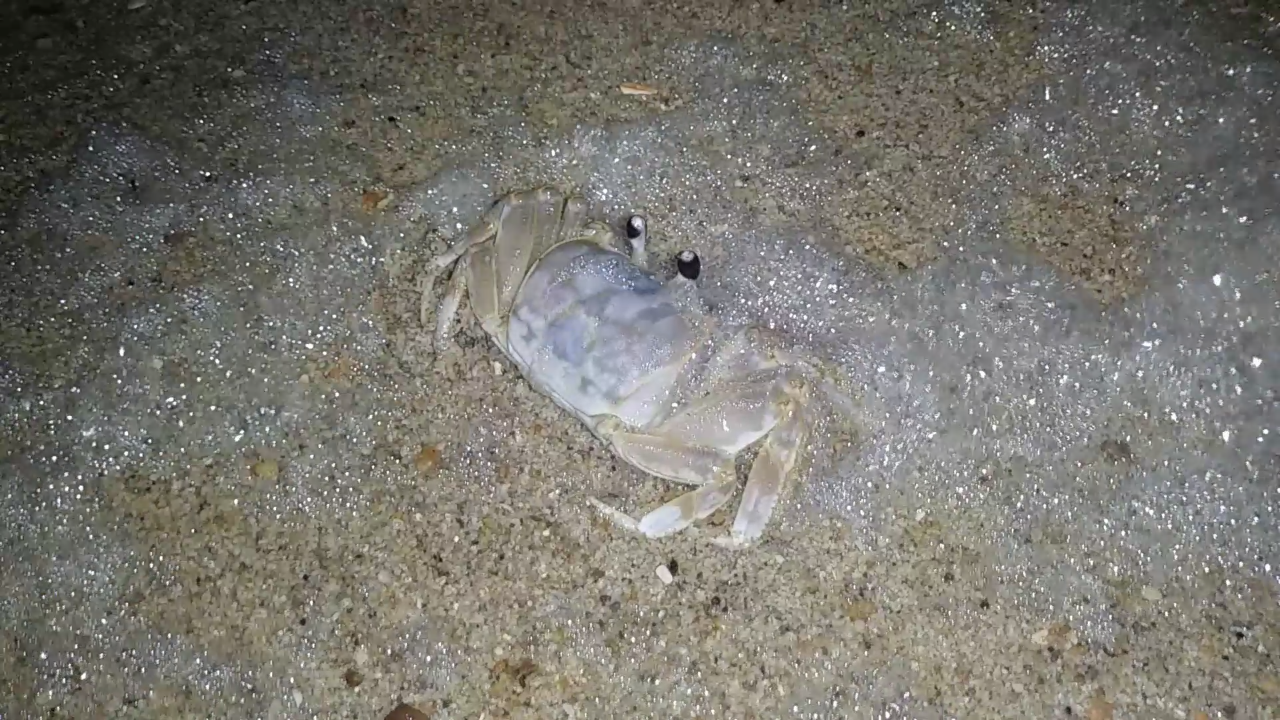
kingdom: Animalia
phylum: Arthropoda
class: Malacostraca
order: Decapoda
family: Ocypodidae
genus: Ocypode
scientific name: Ocypode quadrata
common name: Ghost crab
